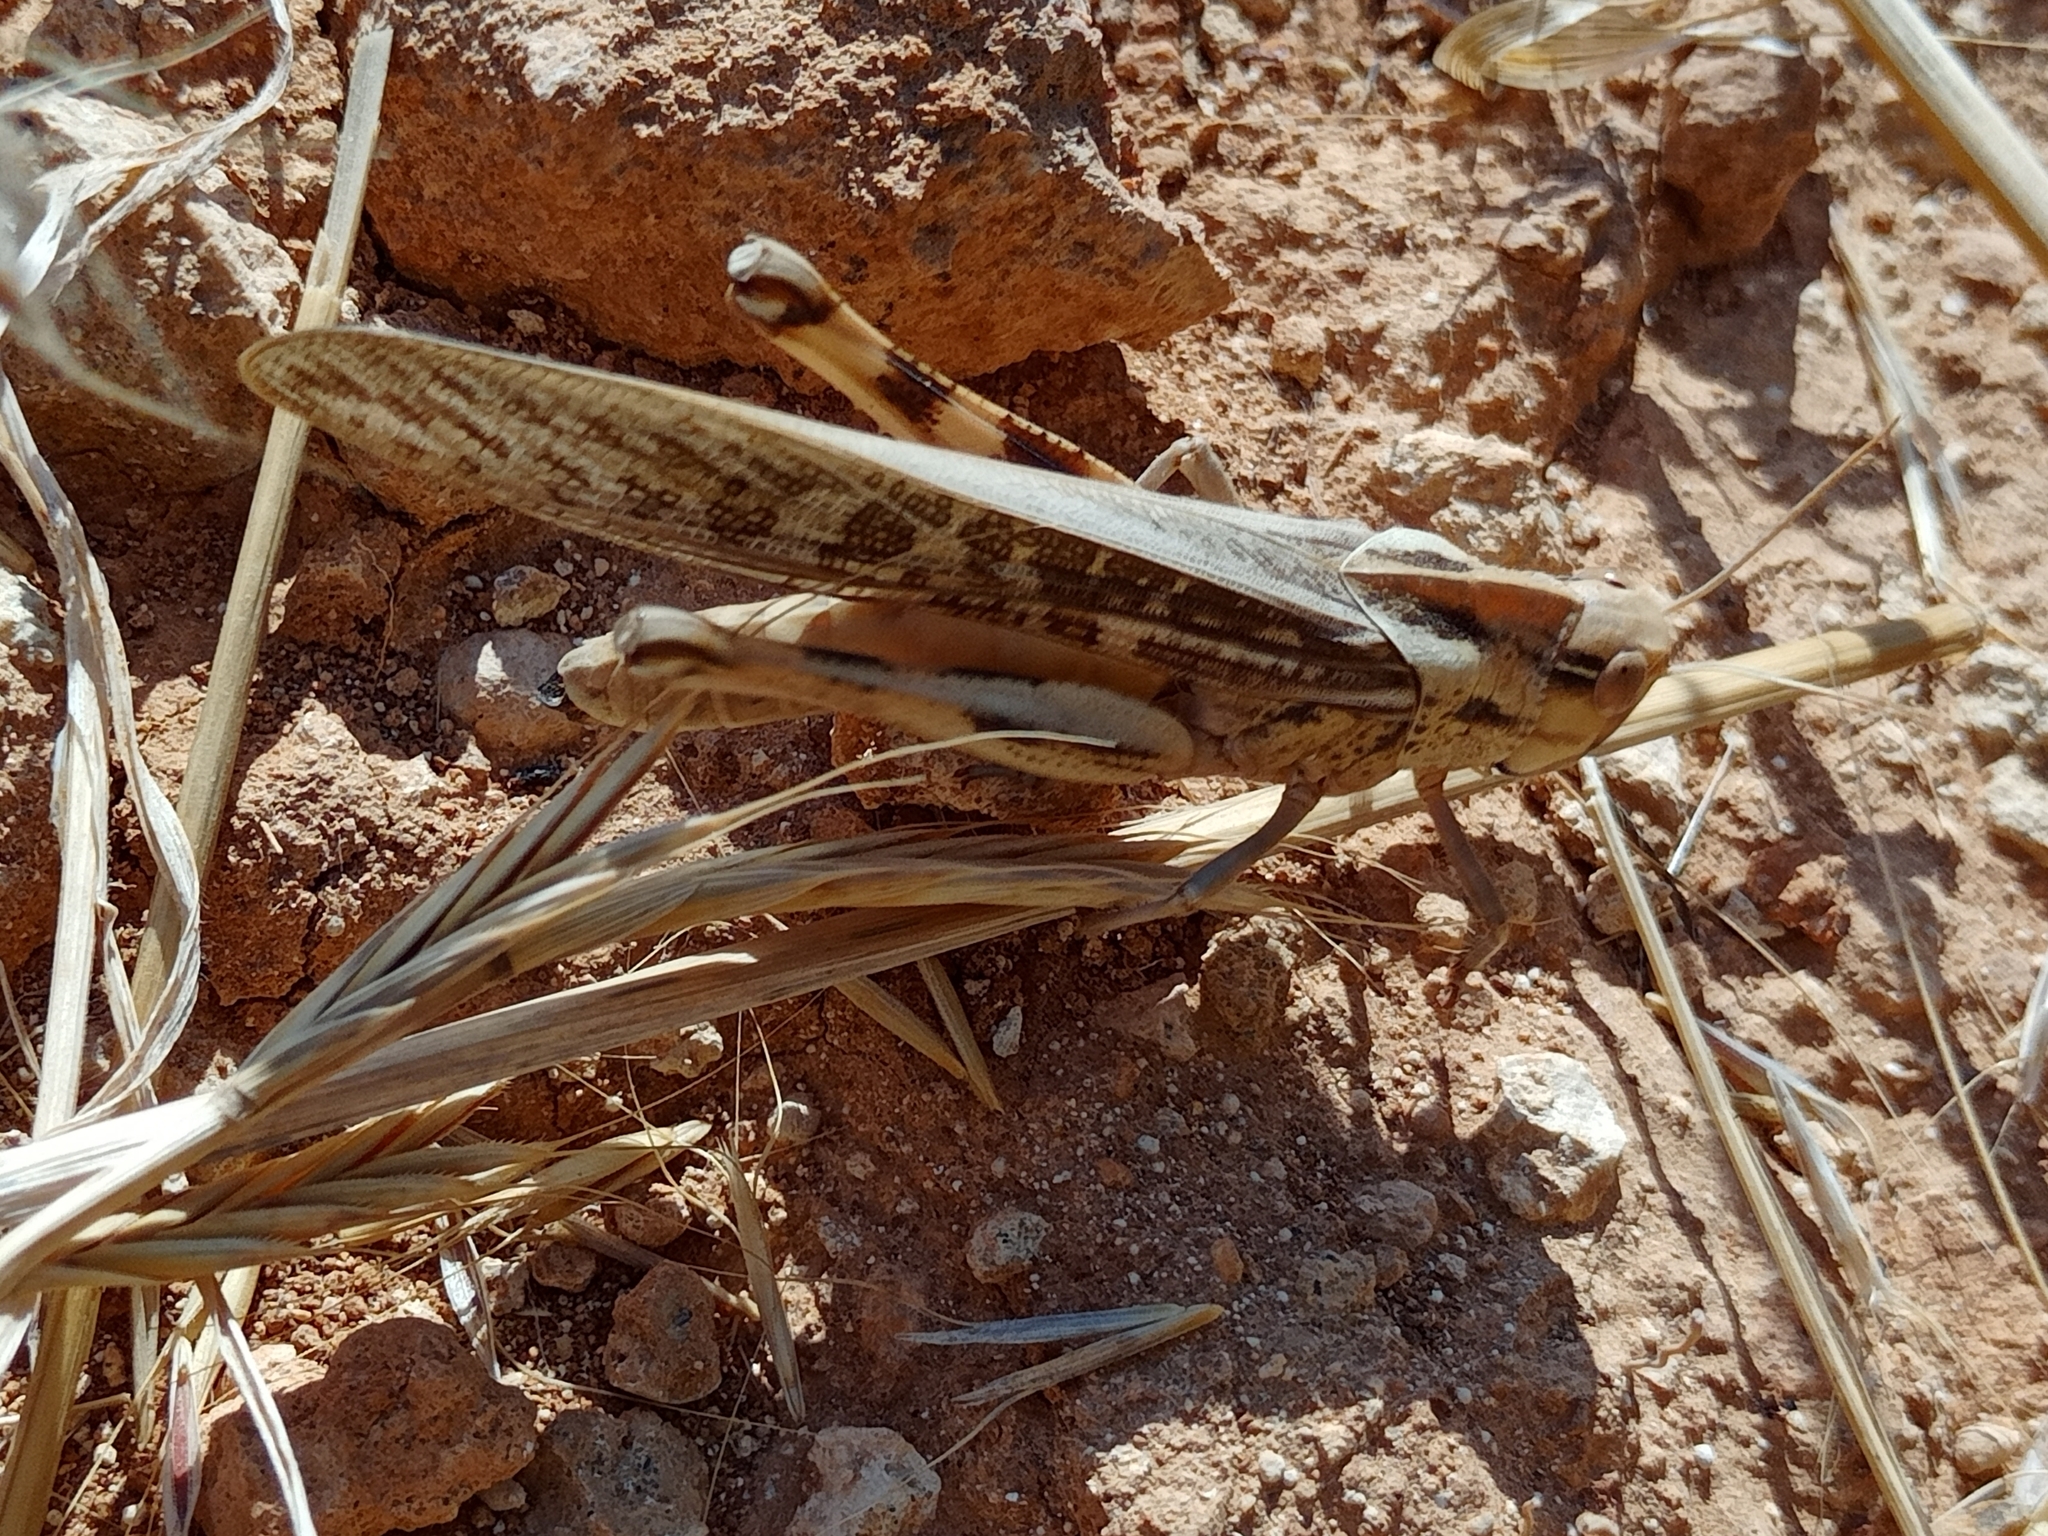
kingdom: Animalia
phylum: Arthropoda
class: Insecta
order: Orthoptera
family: Acrididae
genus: Locusta
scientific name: Locusta migratoria
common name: Migratory locust
